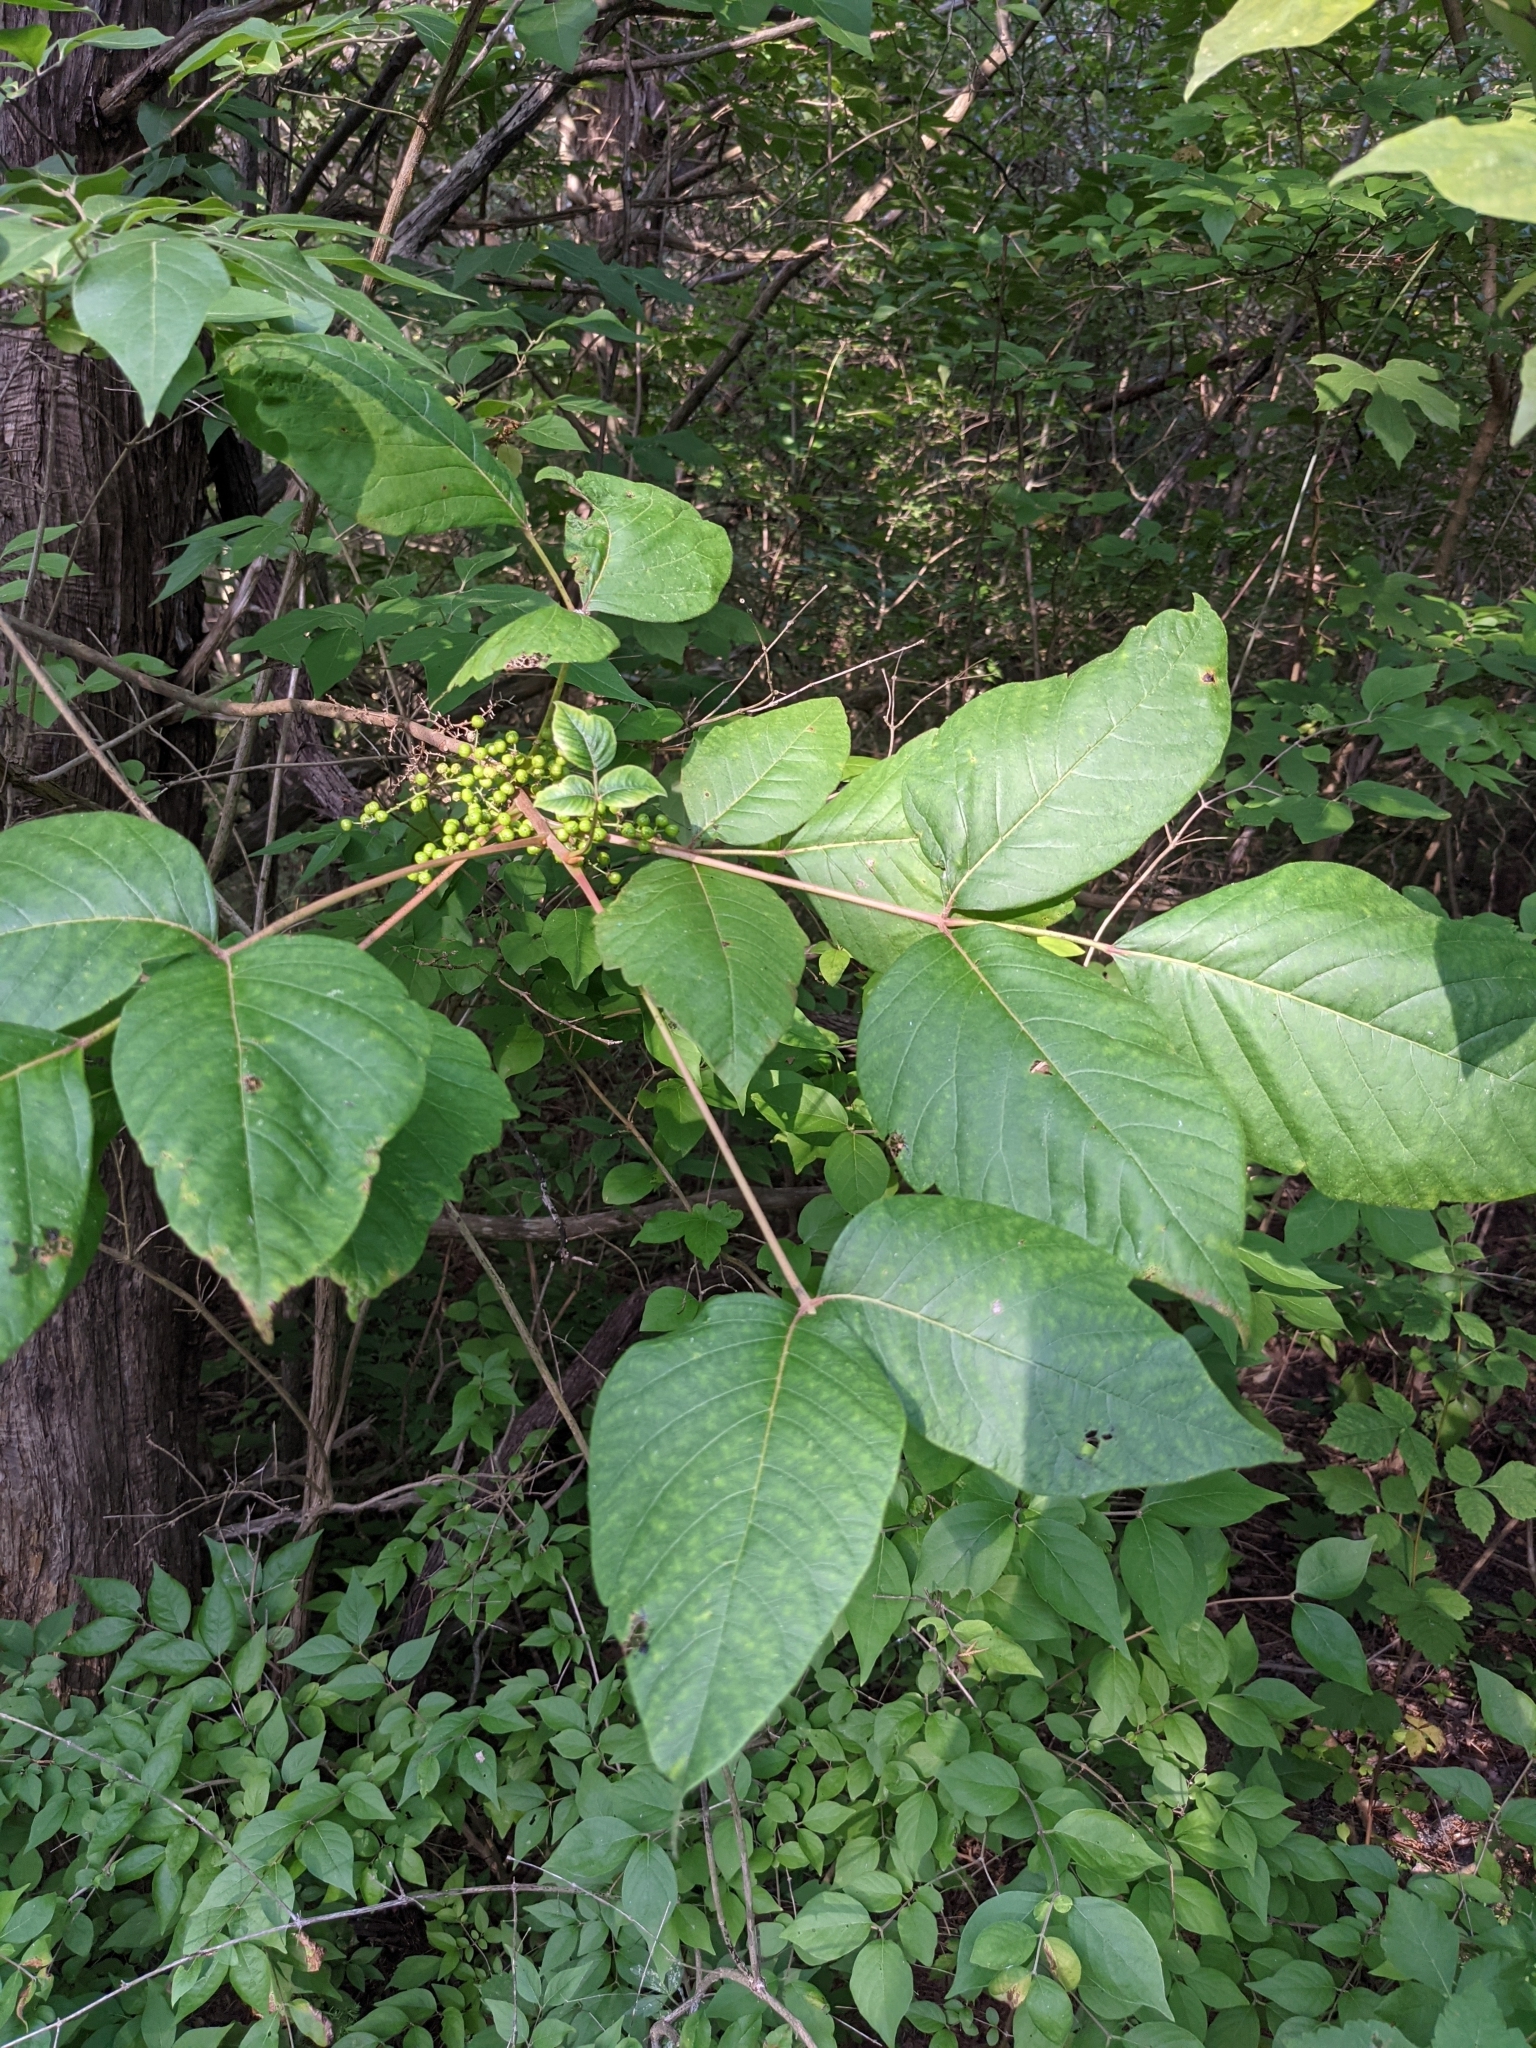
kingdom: Plantae
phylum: Tracheophyta
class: Magnoliopsida
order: Sapindales
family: Anacardiaceae
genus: Toxicodendron
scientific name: Toxicodendron radicans
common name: Poison ivy
